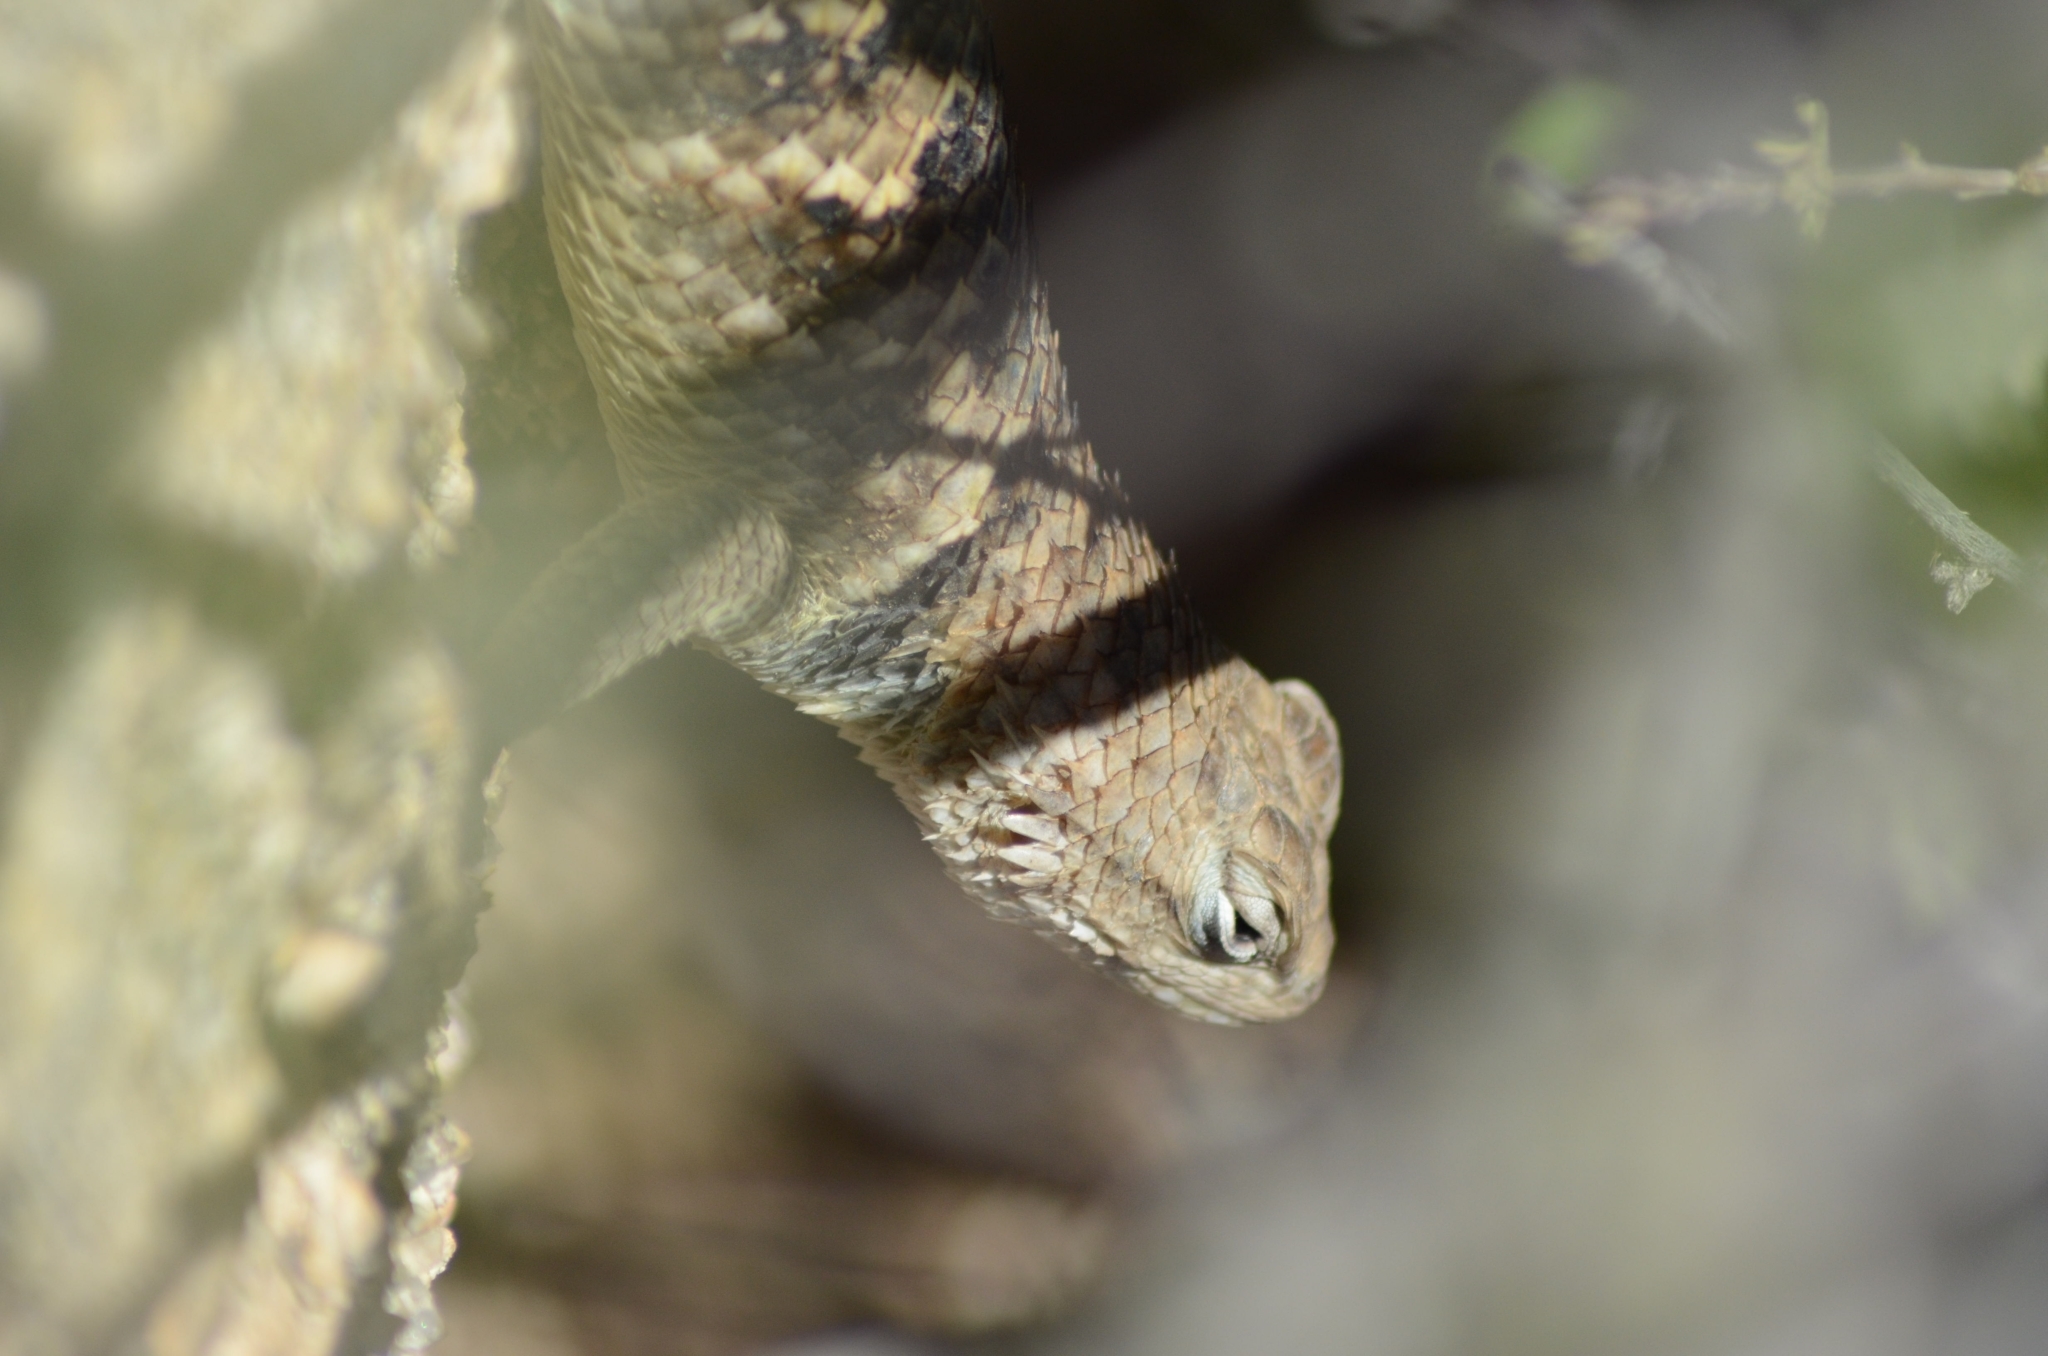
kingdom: Animalia
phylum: Chordata
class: Squamata
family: Phrynosomatidae
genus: Sceloporus
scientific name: Sceloporus uniformis
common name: Yellow-backed spiny lizard
